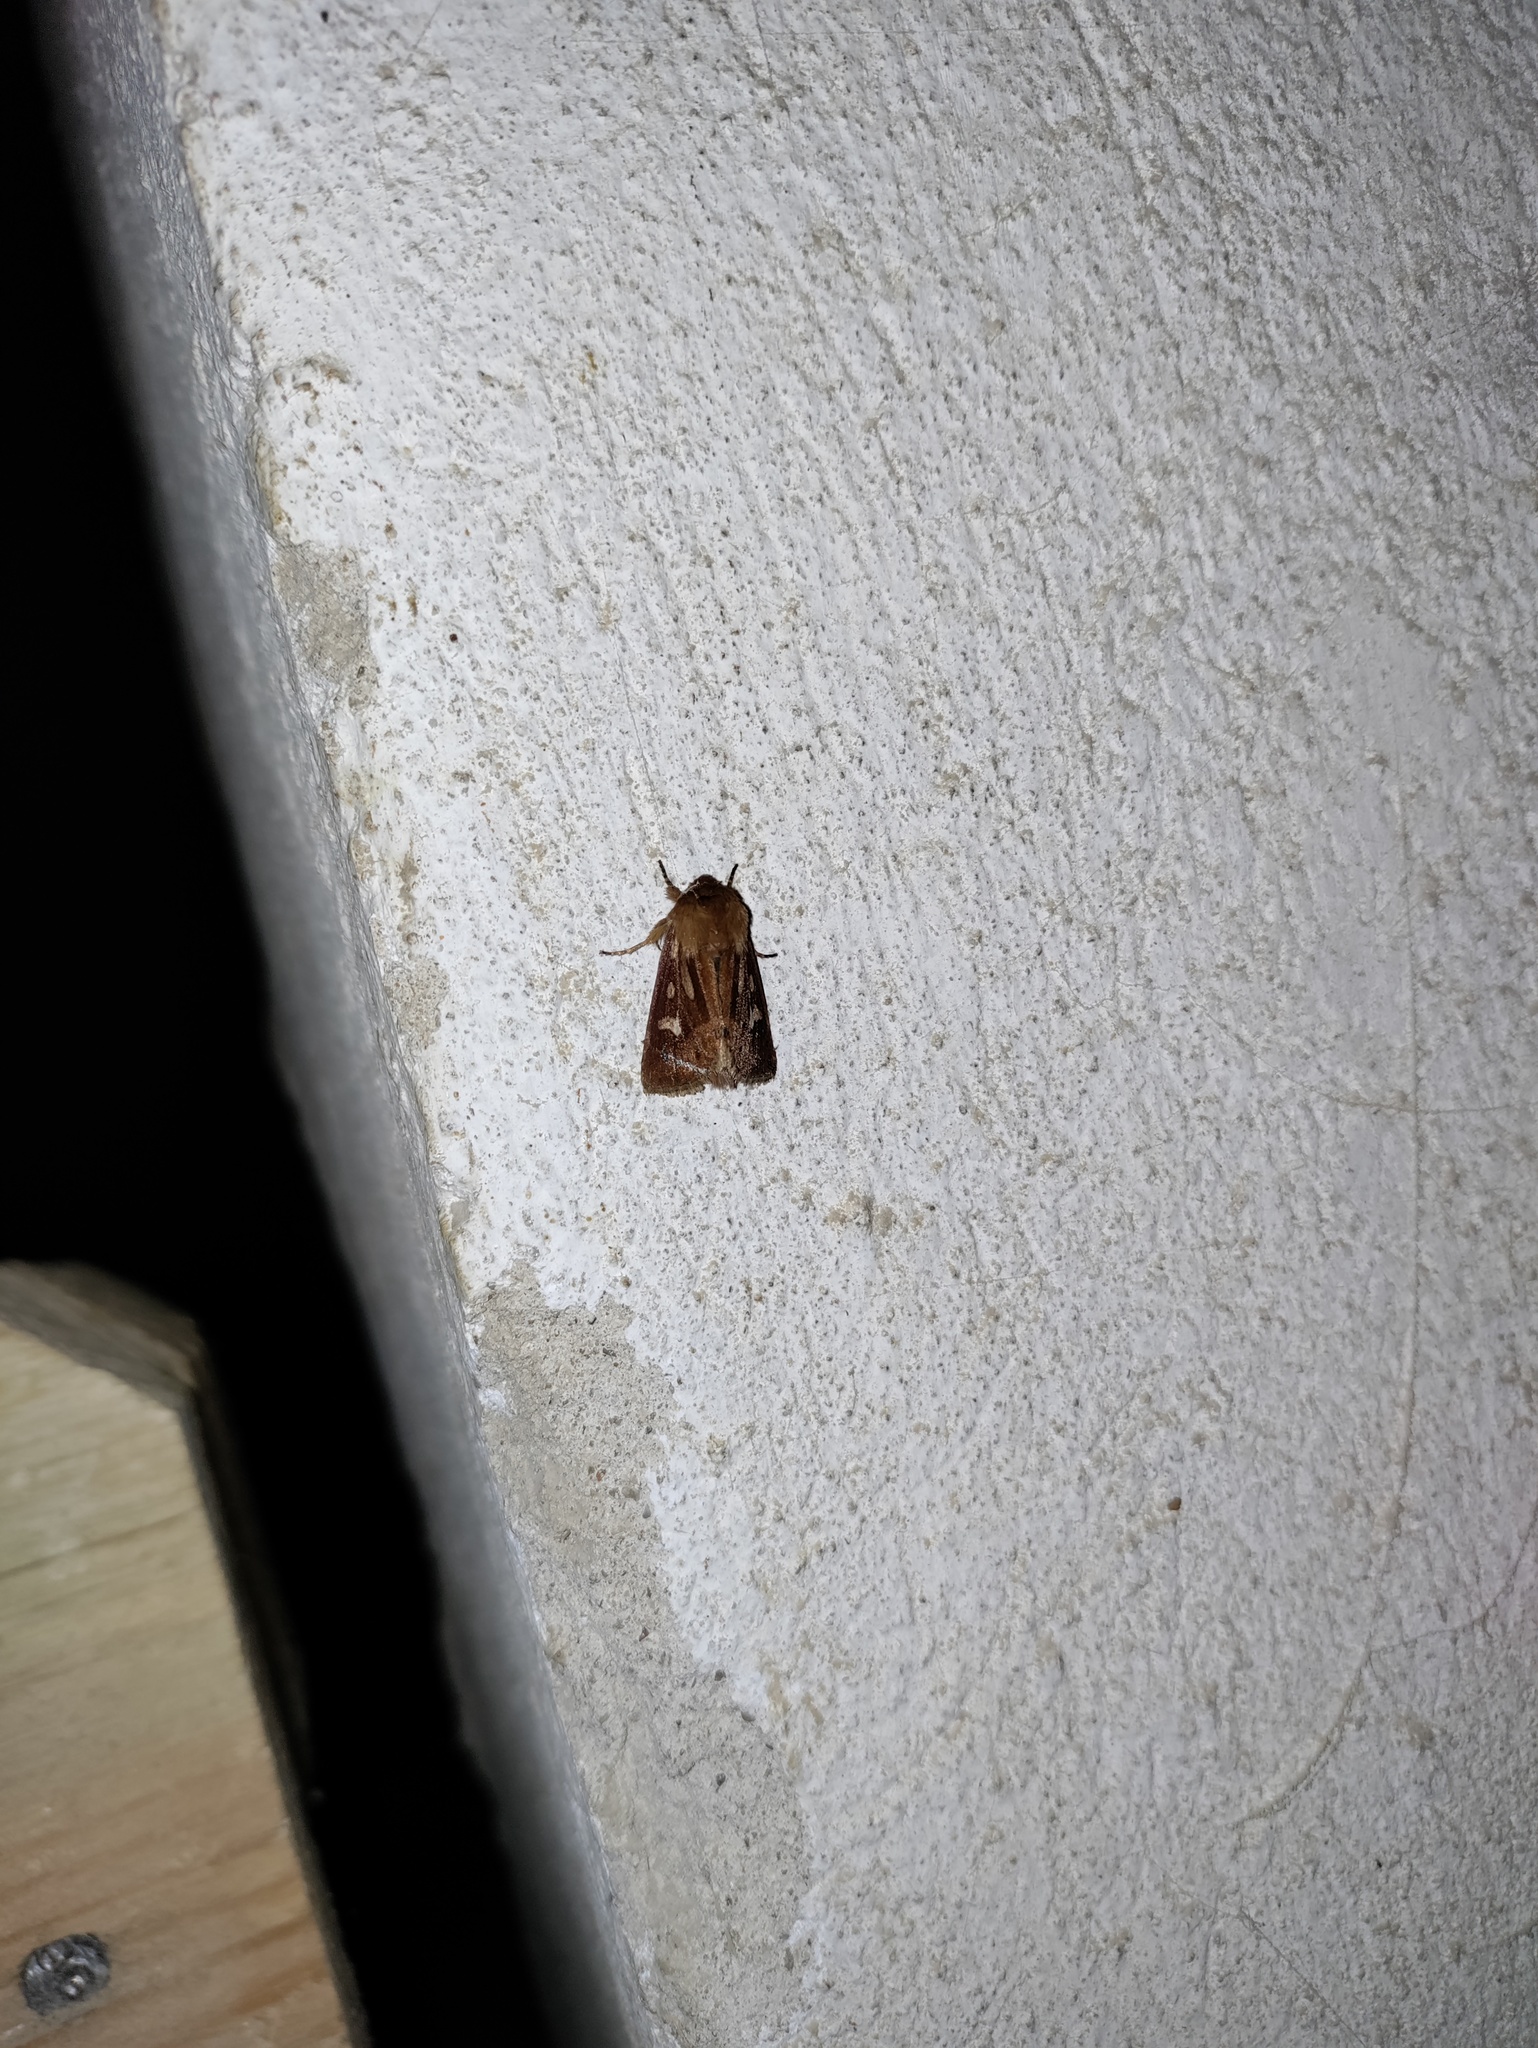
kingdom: Animalia
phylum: Arthropoda
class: Insecta
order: Lepidoptera
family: Noctuidae
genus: Cerapteryx
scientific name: Cerapteryx graminis
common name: Antler moth
